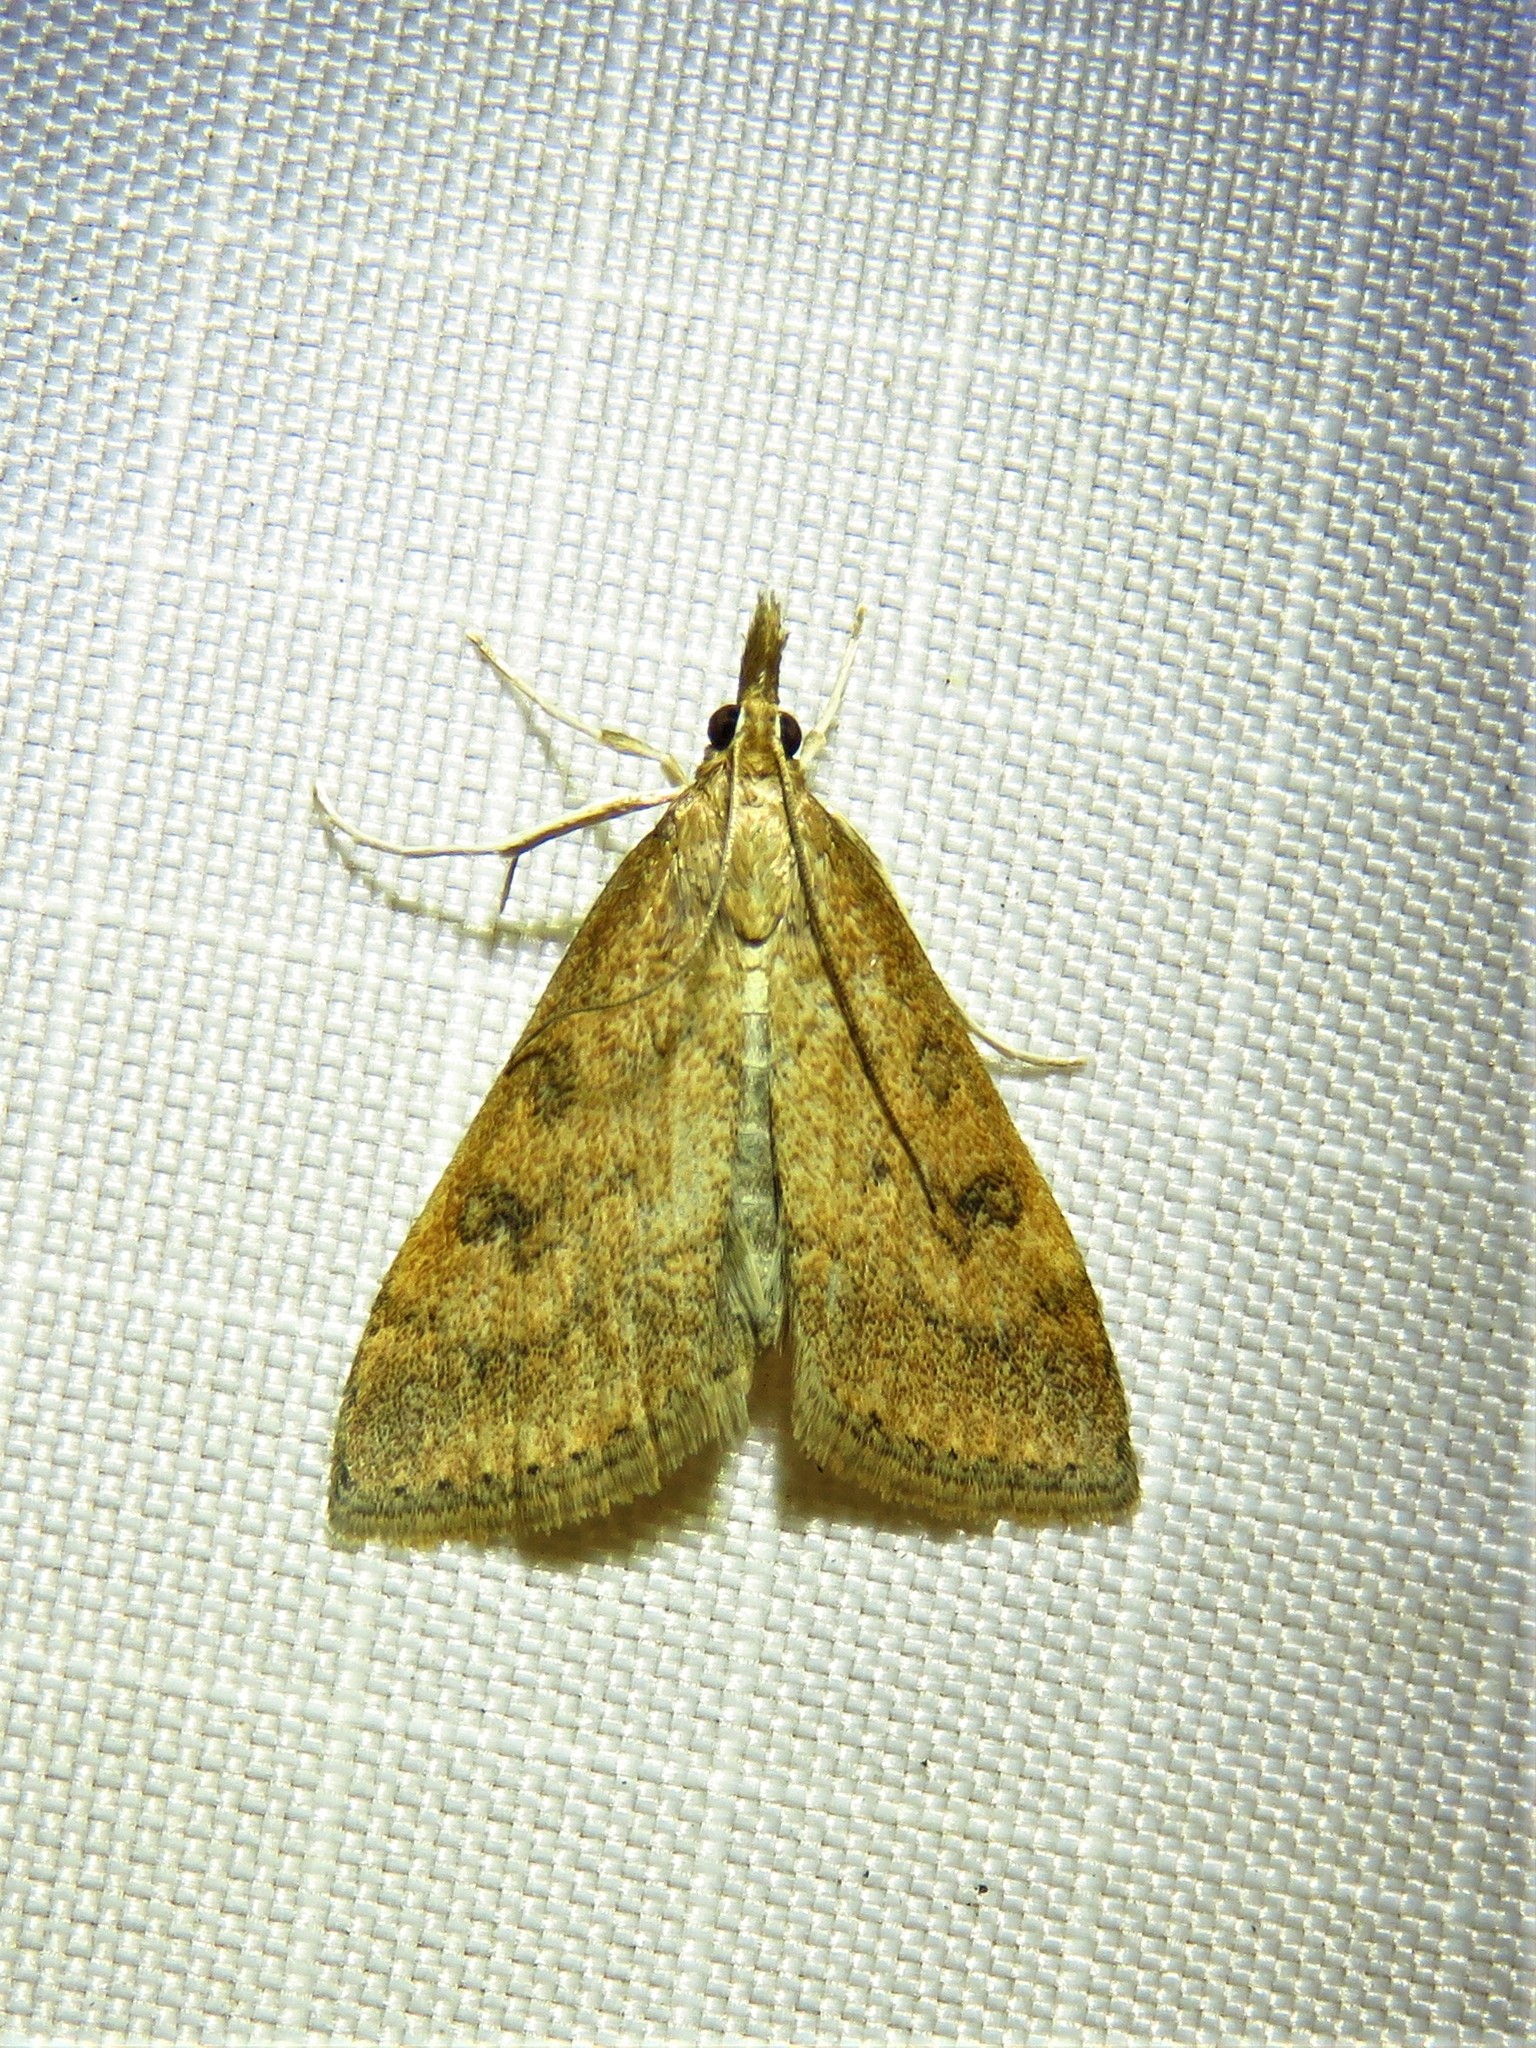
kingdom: Animalia
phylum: Arthropoda
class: Insecta
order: Lepidoptera
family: Crambidae
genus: Udea
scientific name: Udea rubigalis
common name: Celery leaftier moth
